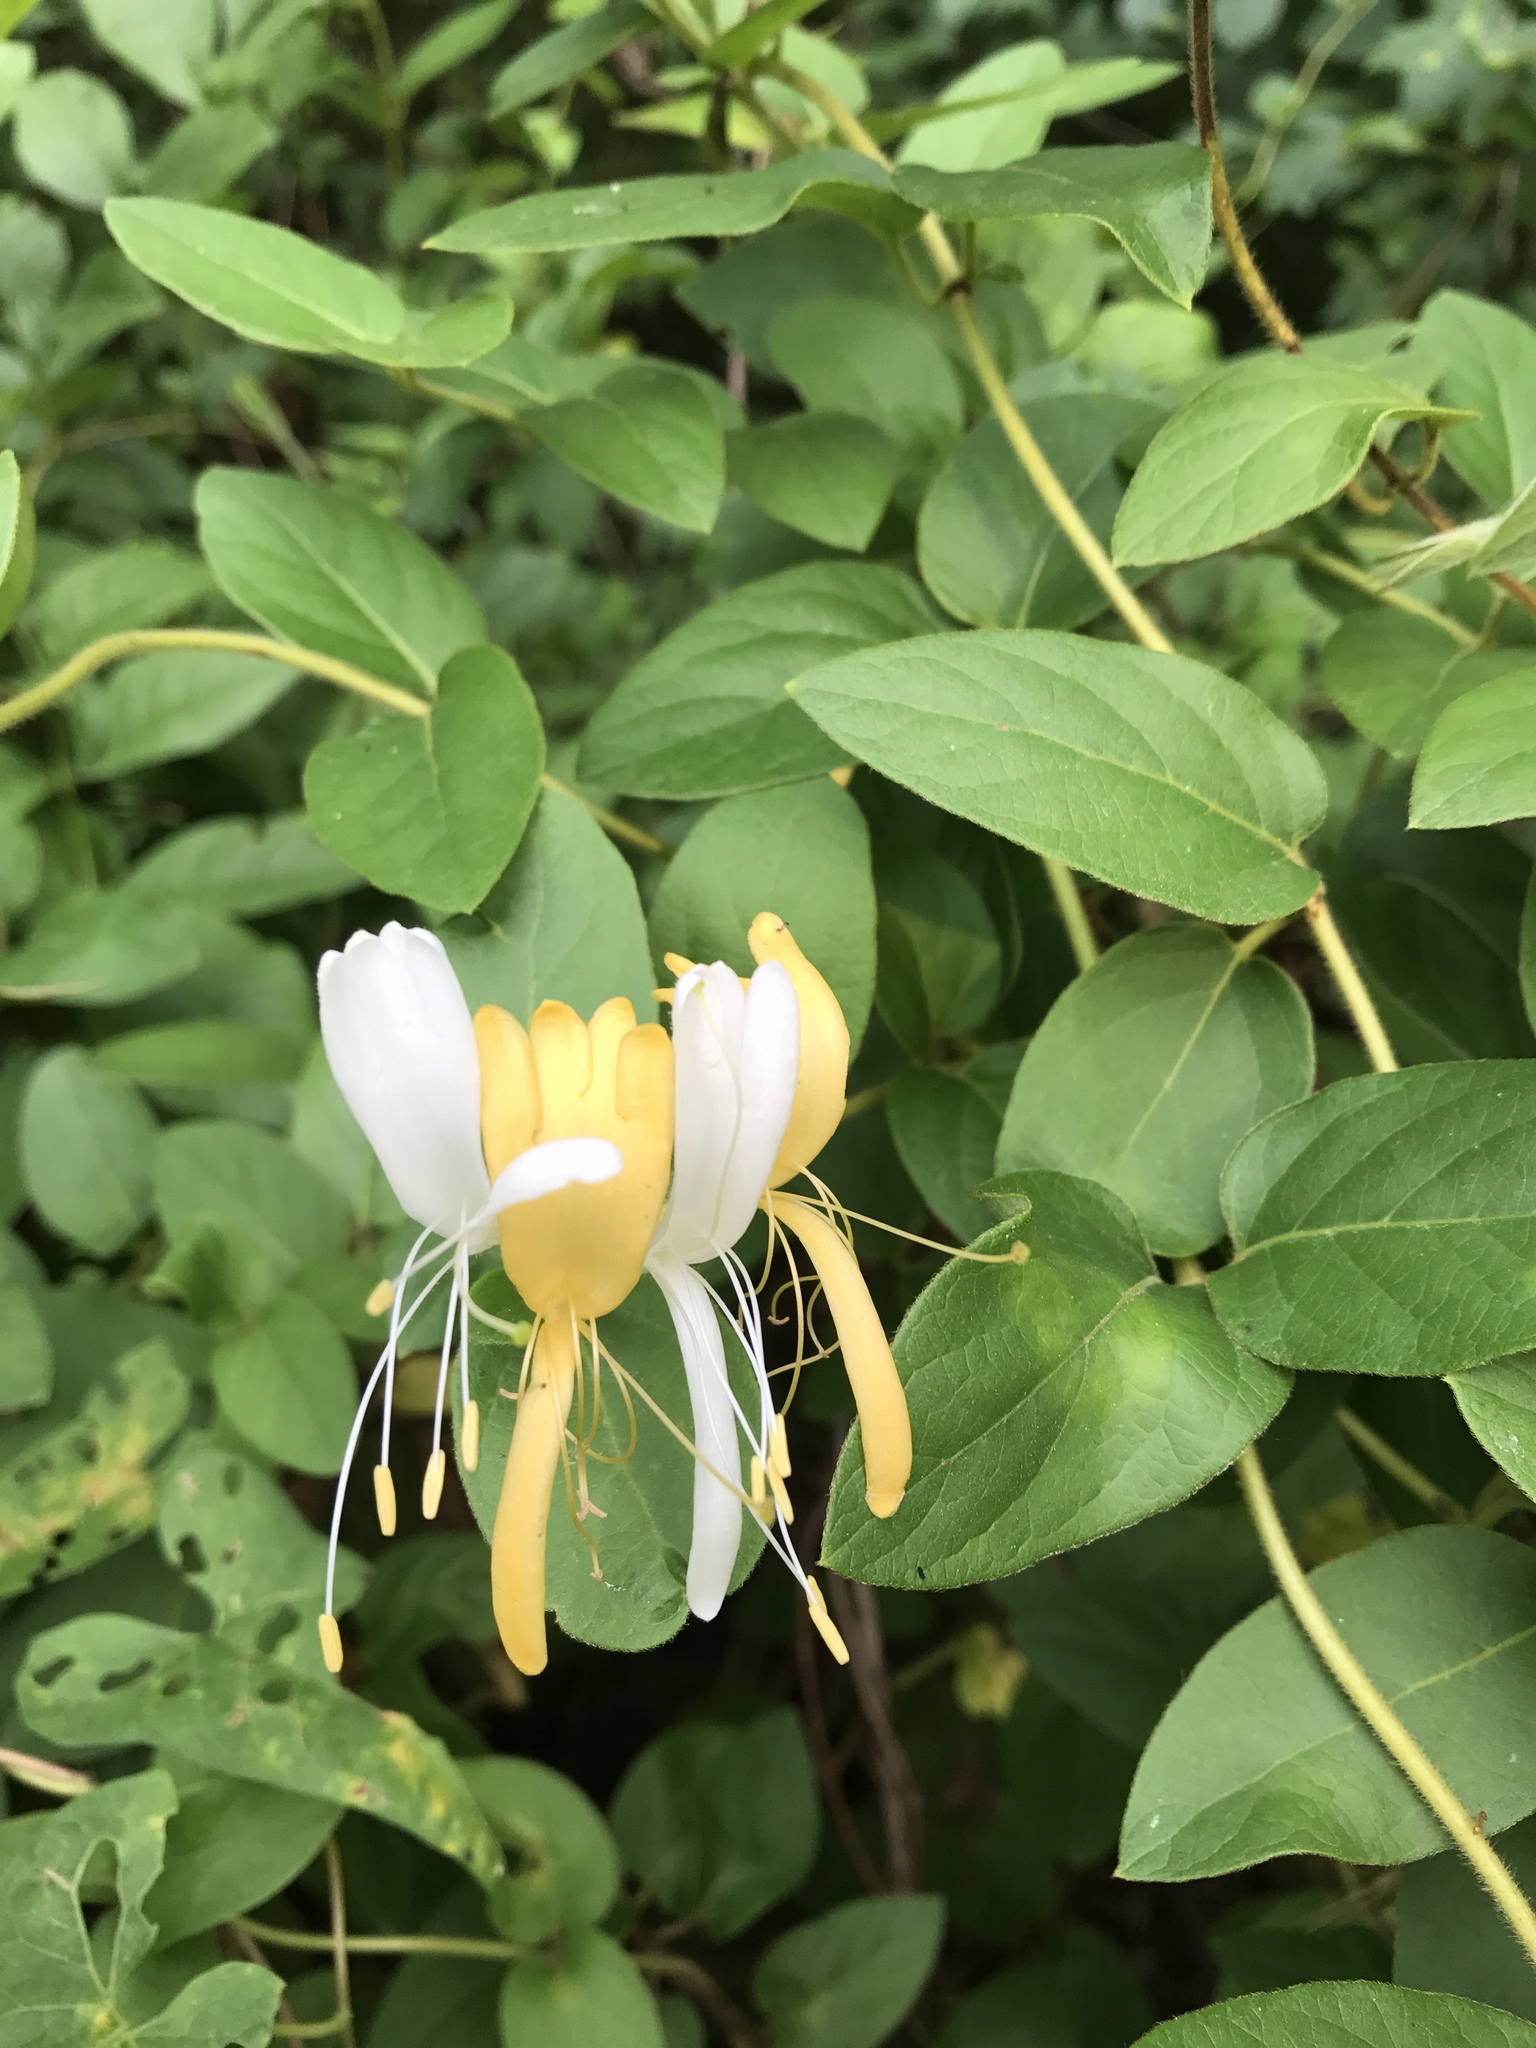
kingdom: Plantae
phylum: Tracheophyta
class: Magnoliopsida
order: Dipsacales
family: Caprifoliaceae
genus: Lonicera
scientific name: Lonicera japonica
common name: Japanese honeysuckle
